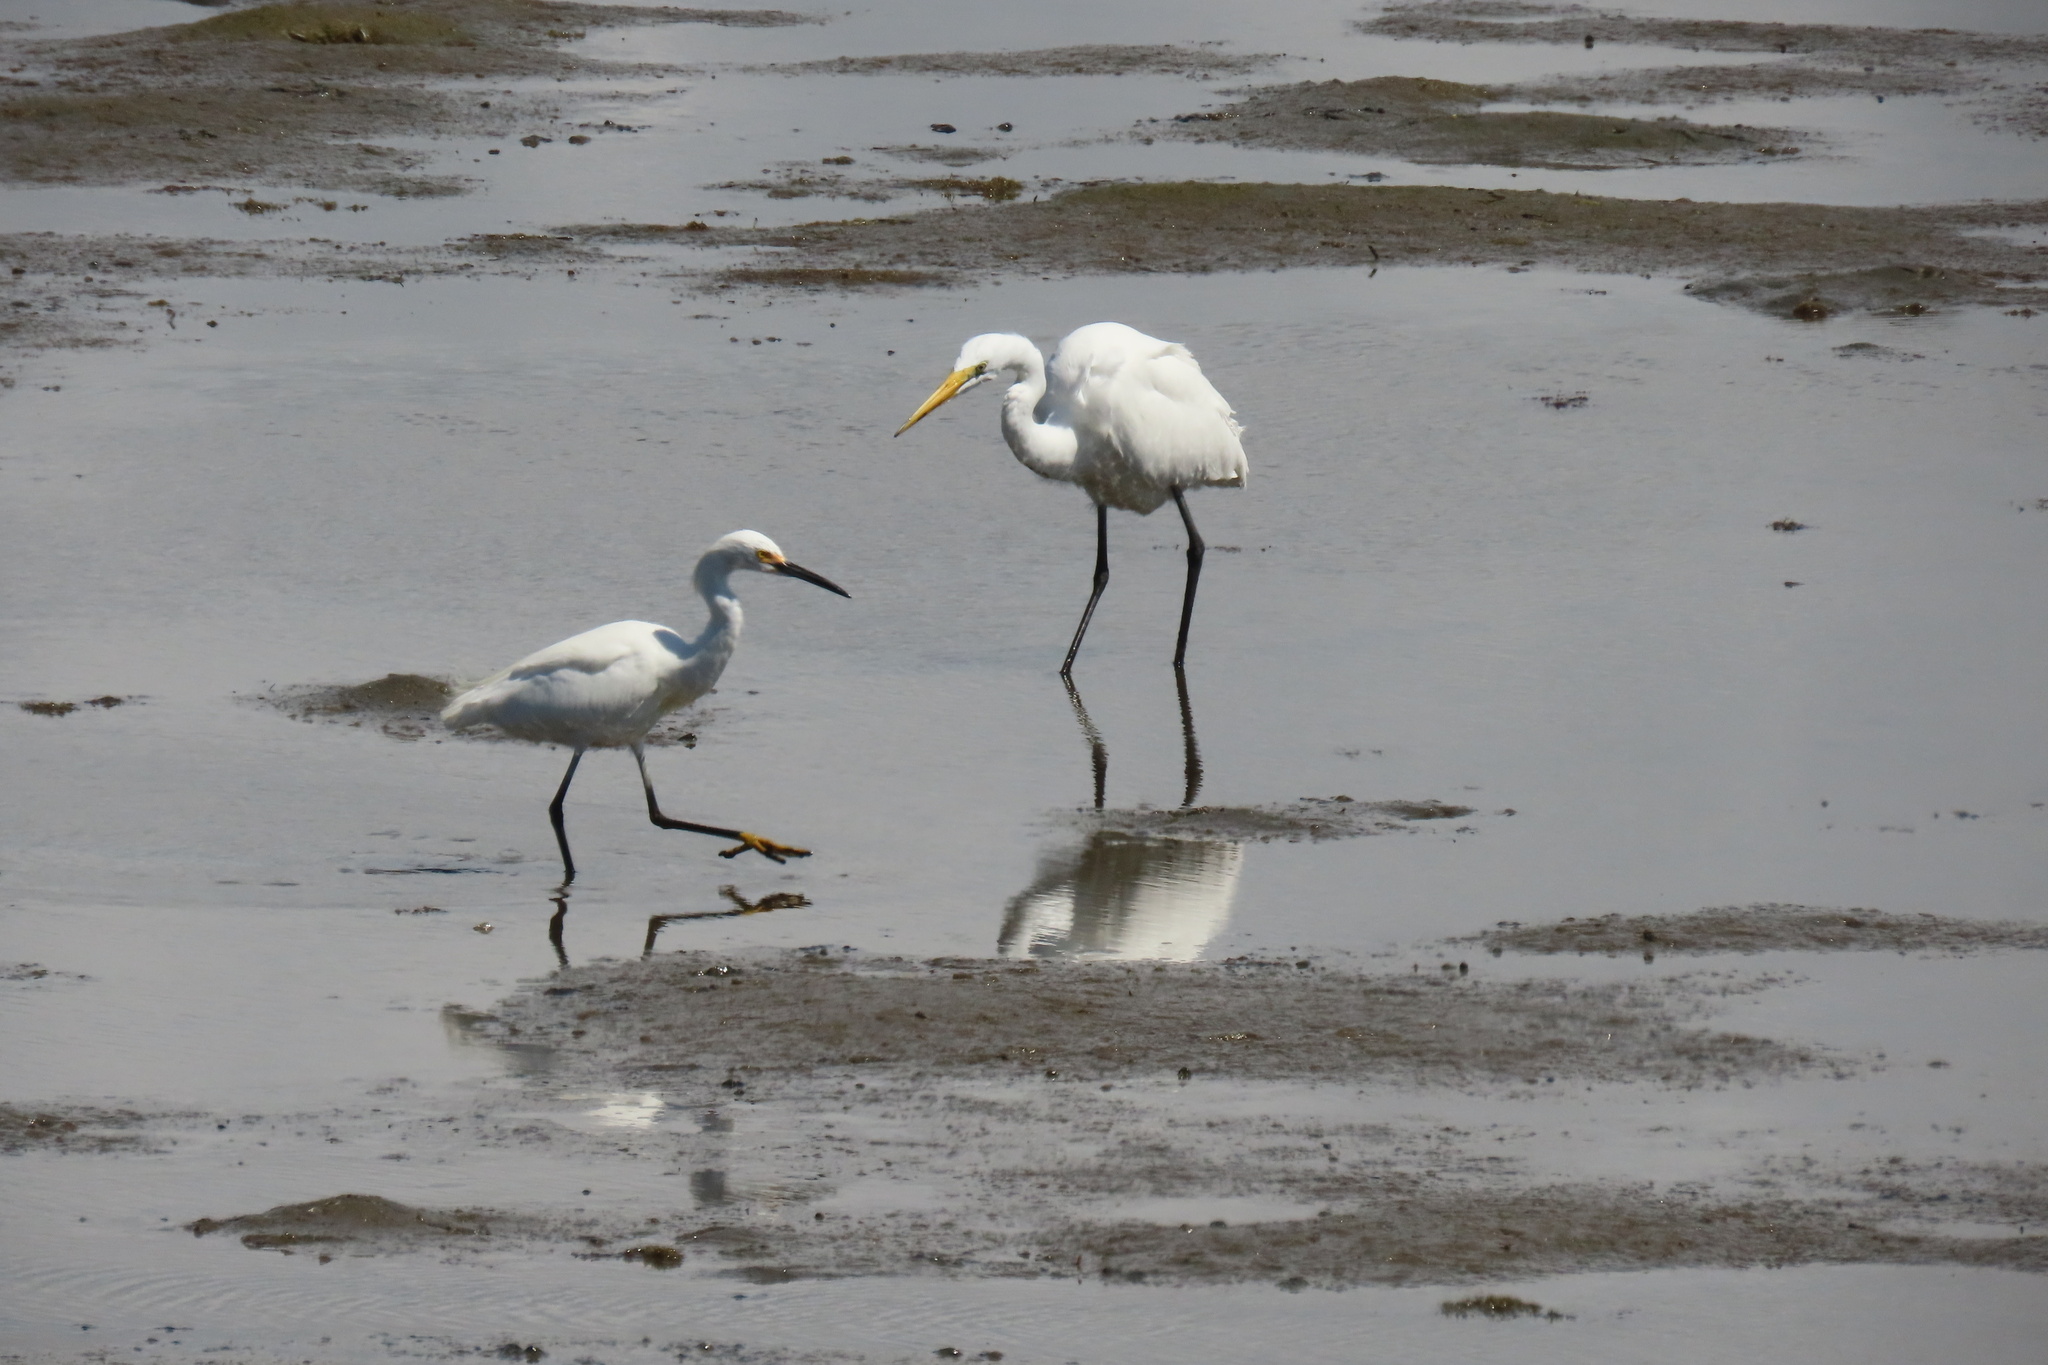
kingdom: Animalia
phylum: Chordata
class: Aves
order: Pelecaniformes
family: Ardeidae
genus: Ardea
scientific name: Ardea alba
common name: Great egret
